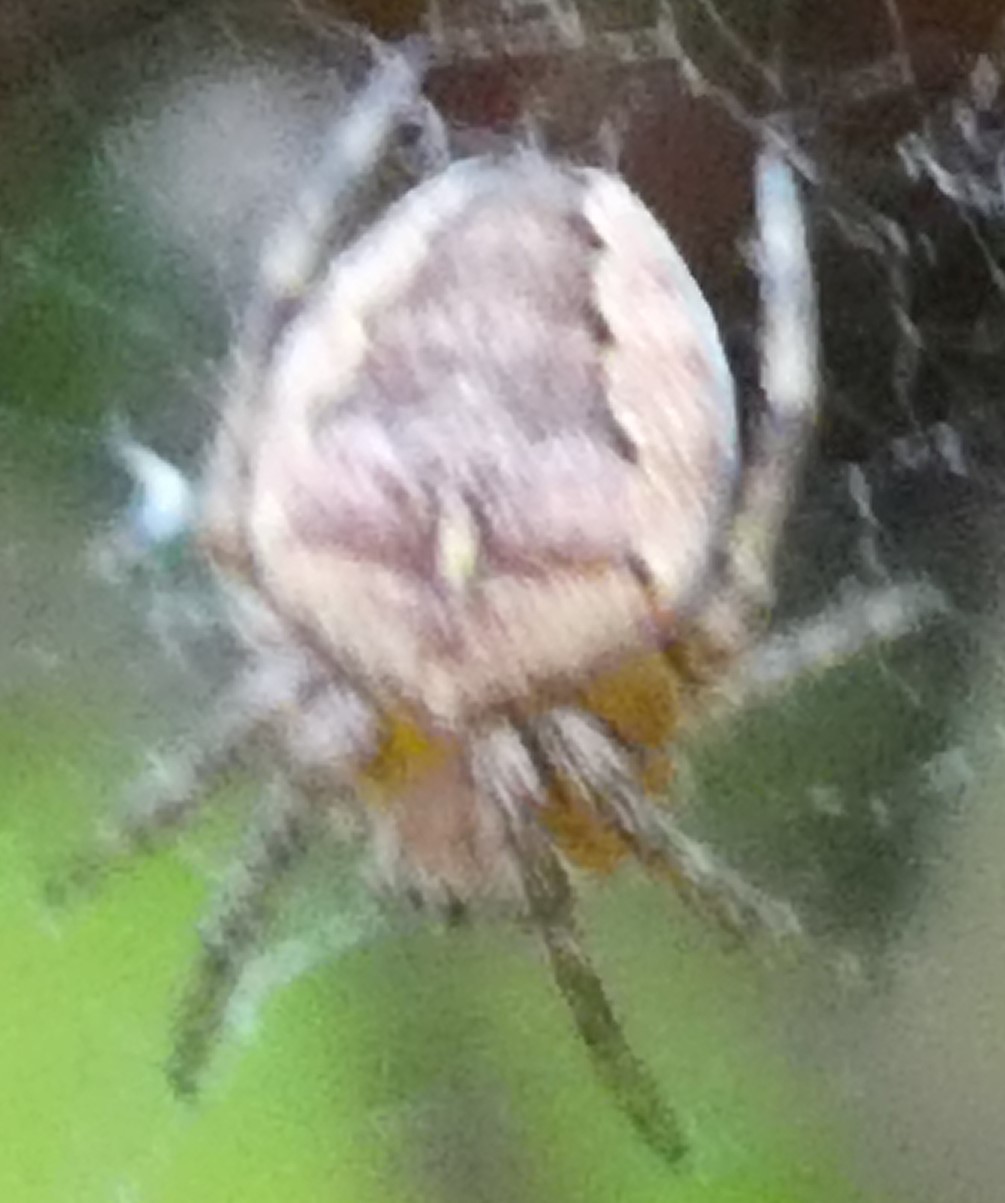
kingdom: Animalia
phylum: Arthropoda
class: Arachnida
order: Araneae
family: Araneidae
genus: Araneus
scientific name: Araneus diadematus
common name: Cross orbweaver
